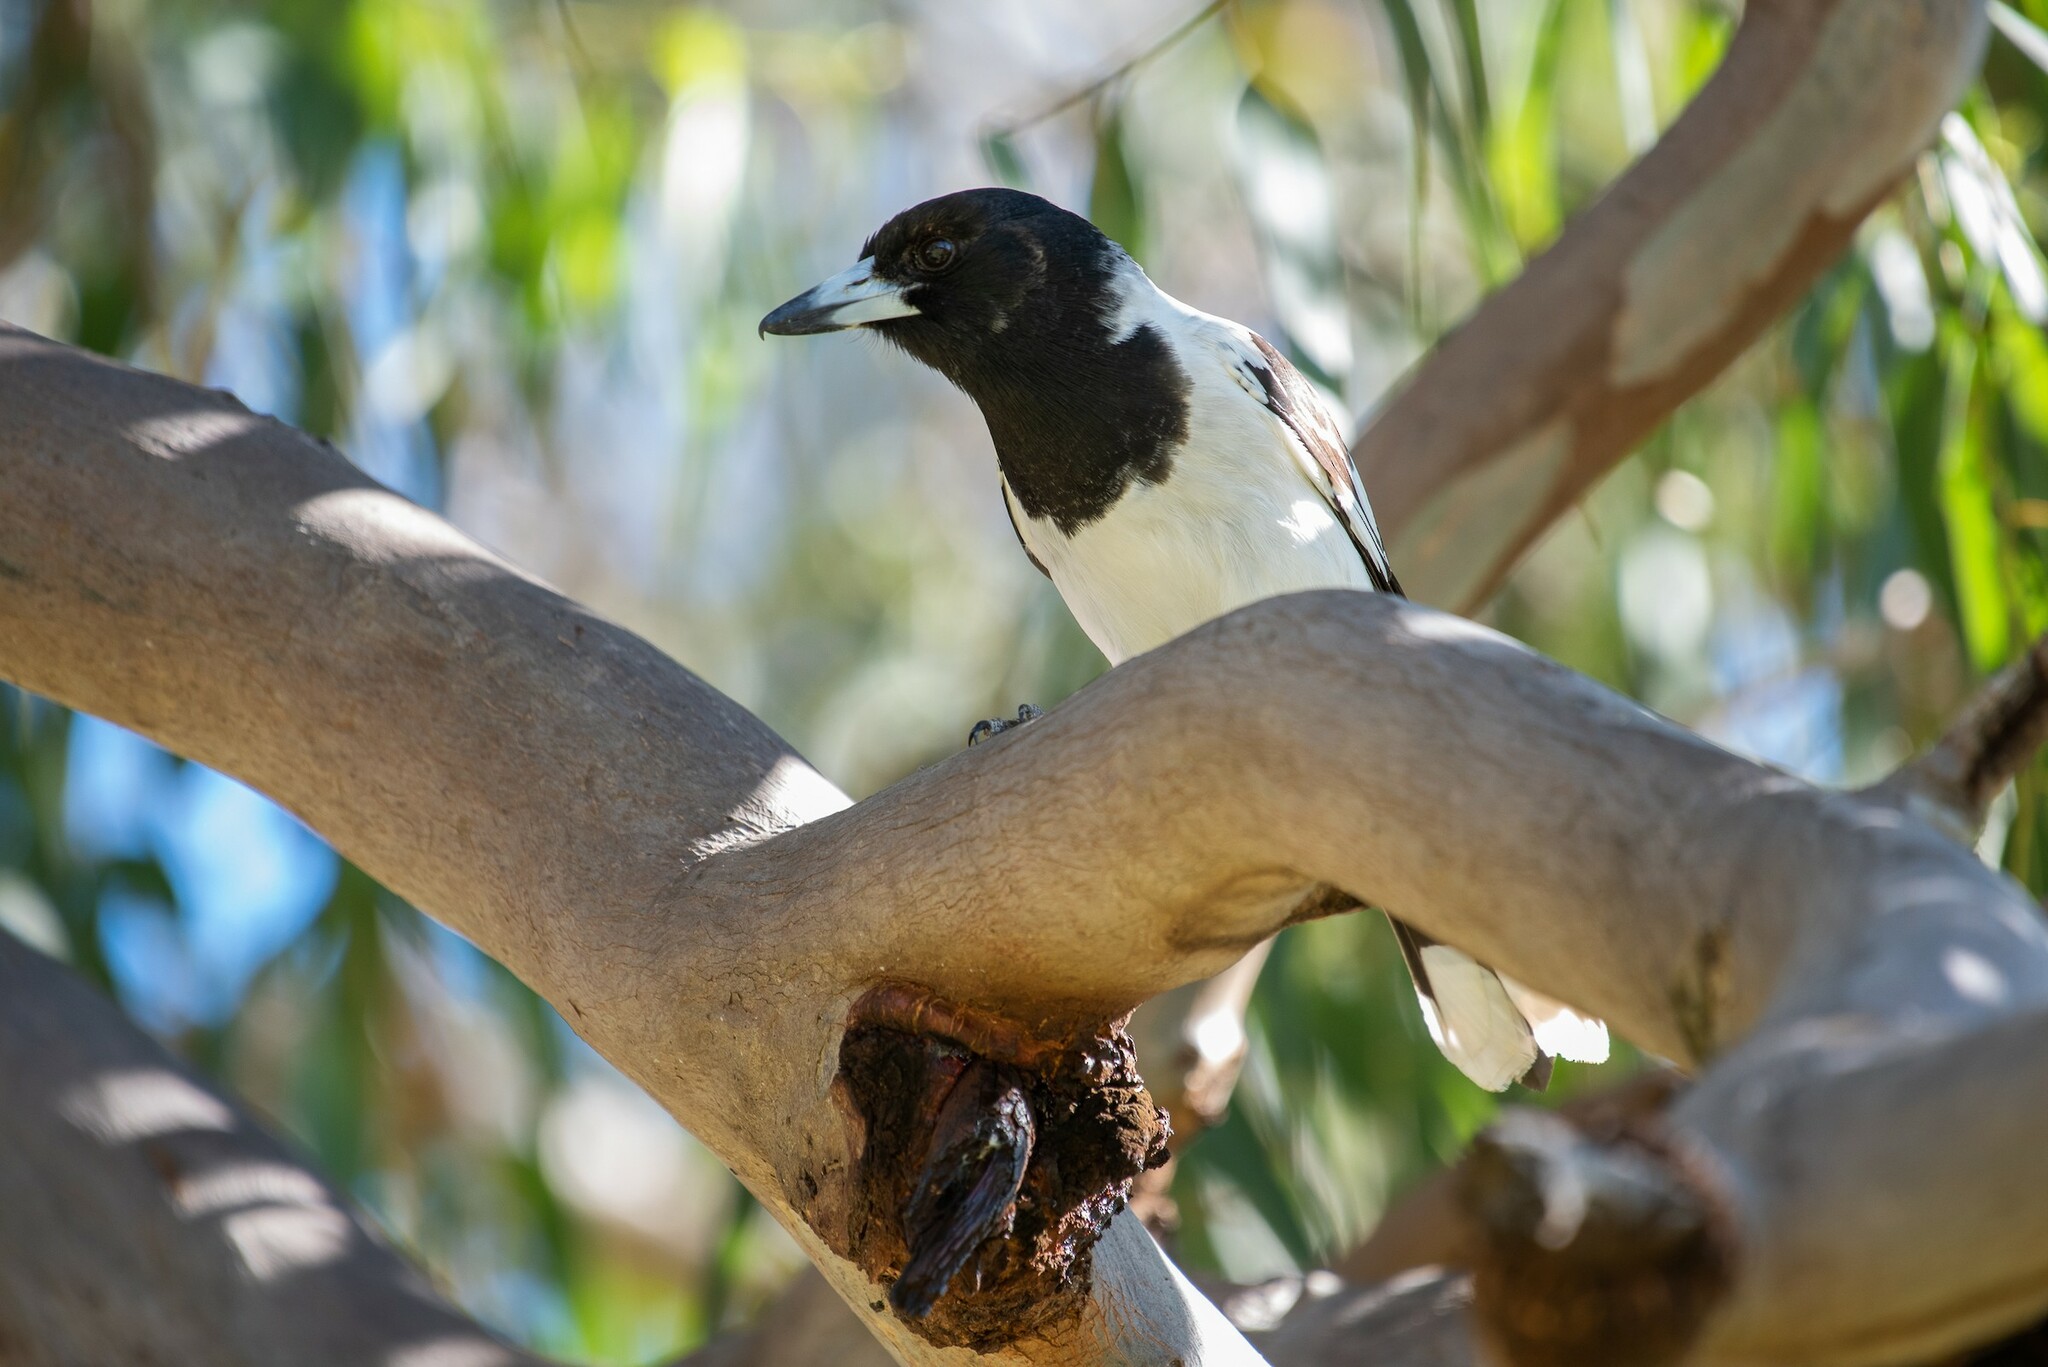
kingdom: Animalia
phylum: Chordata
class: Aves
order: Passeriformes
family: Cracticidae
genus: Cracticus
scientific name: Cracticus nigrogularis
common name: Pied butcherbird
